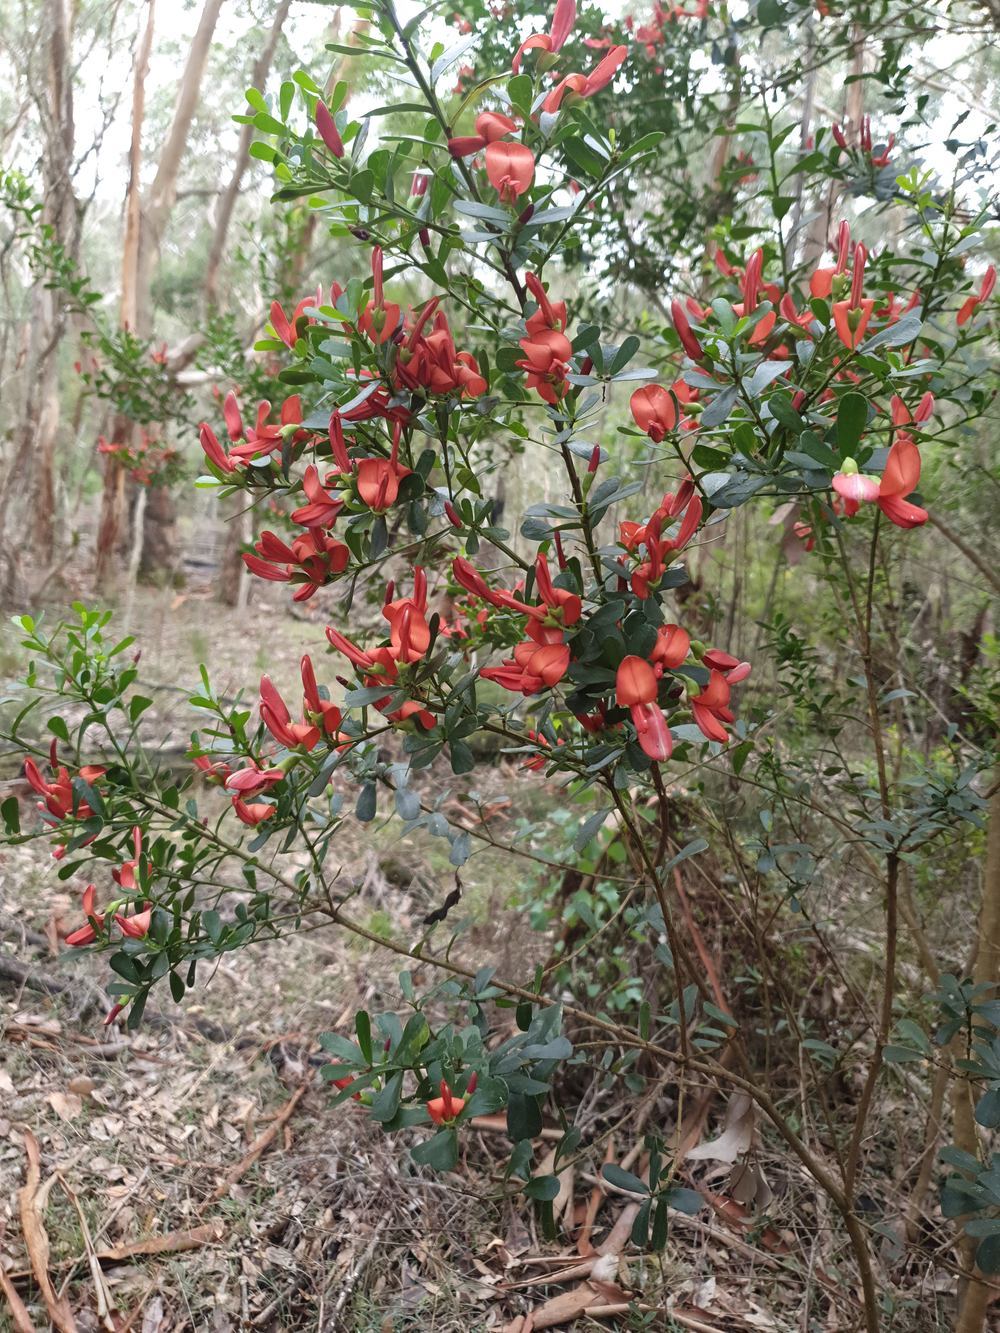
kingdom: Plantae
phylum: Tracheophyta
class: Magnoliopsida
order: Fabales
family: Fabaceae
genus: Templetonia
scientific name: Templetonia retusa
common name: Cockies'-tongue
